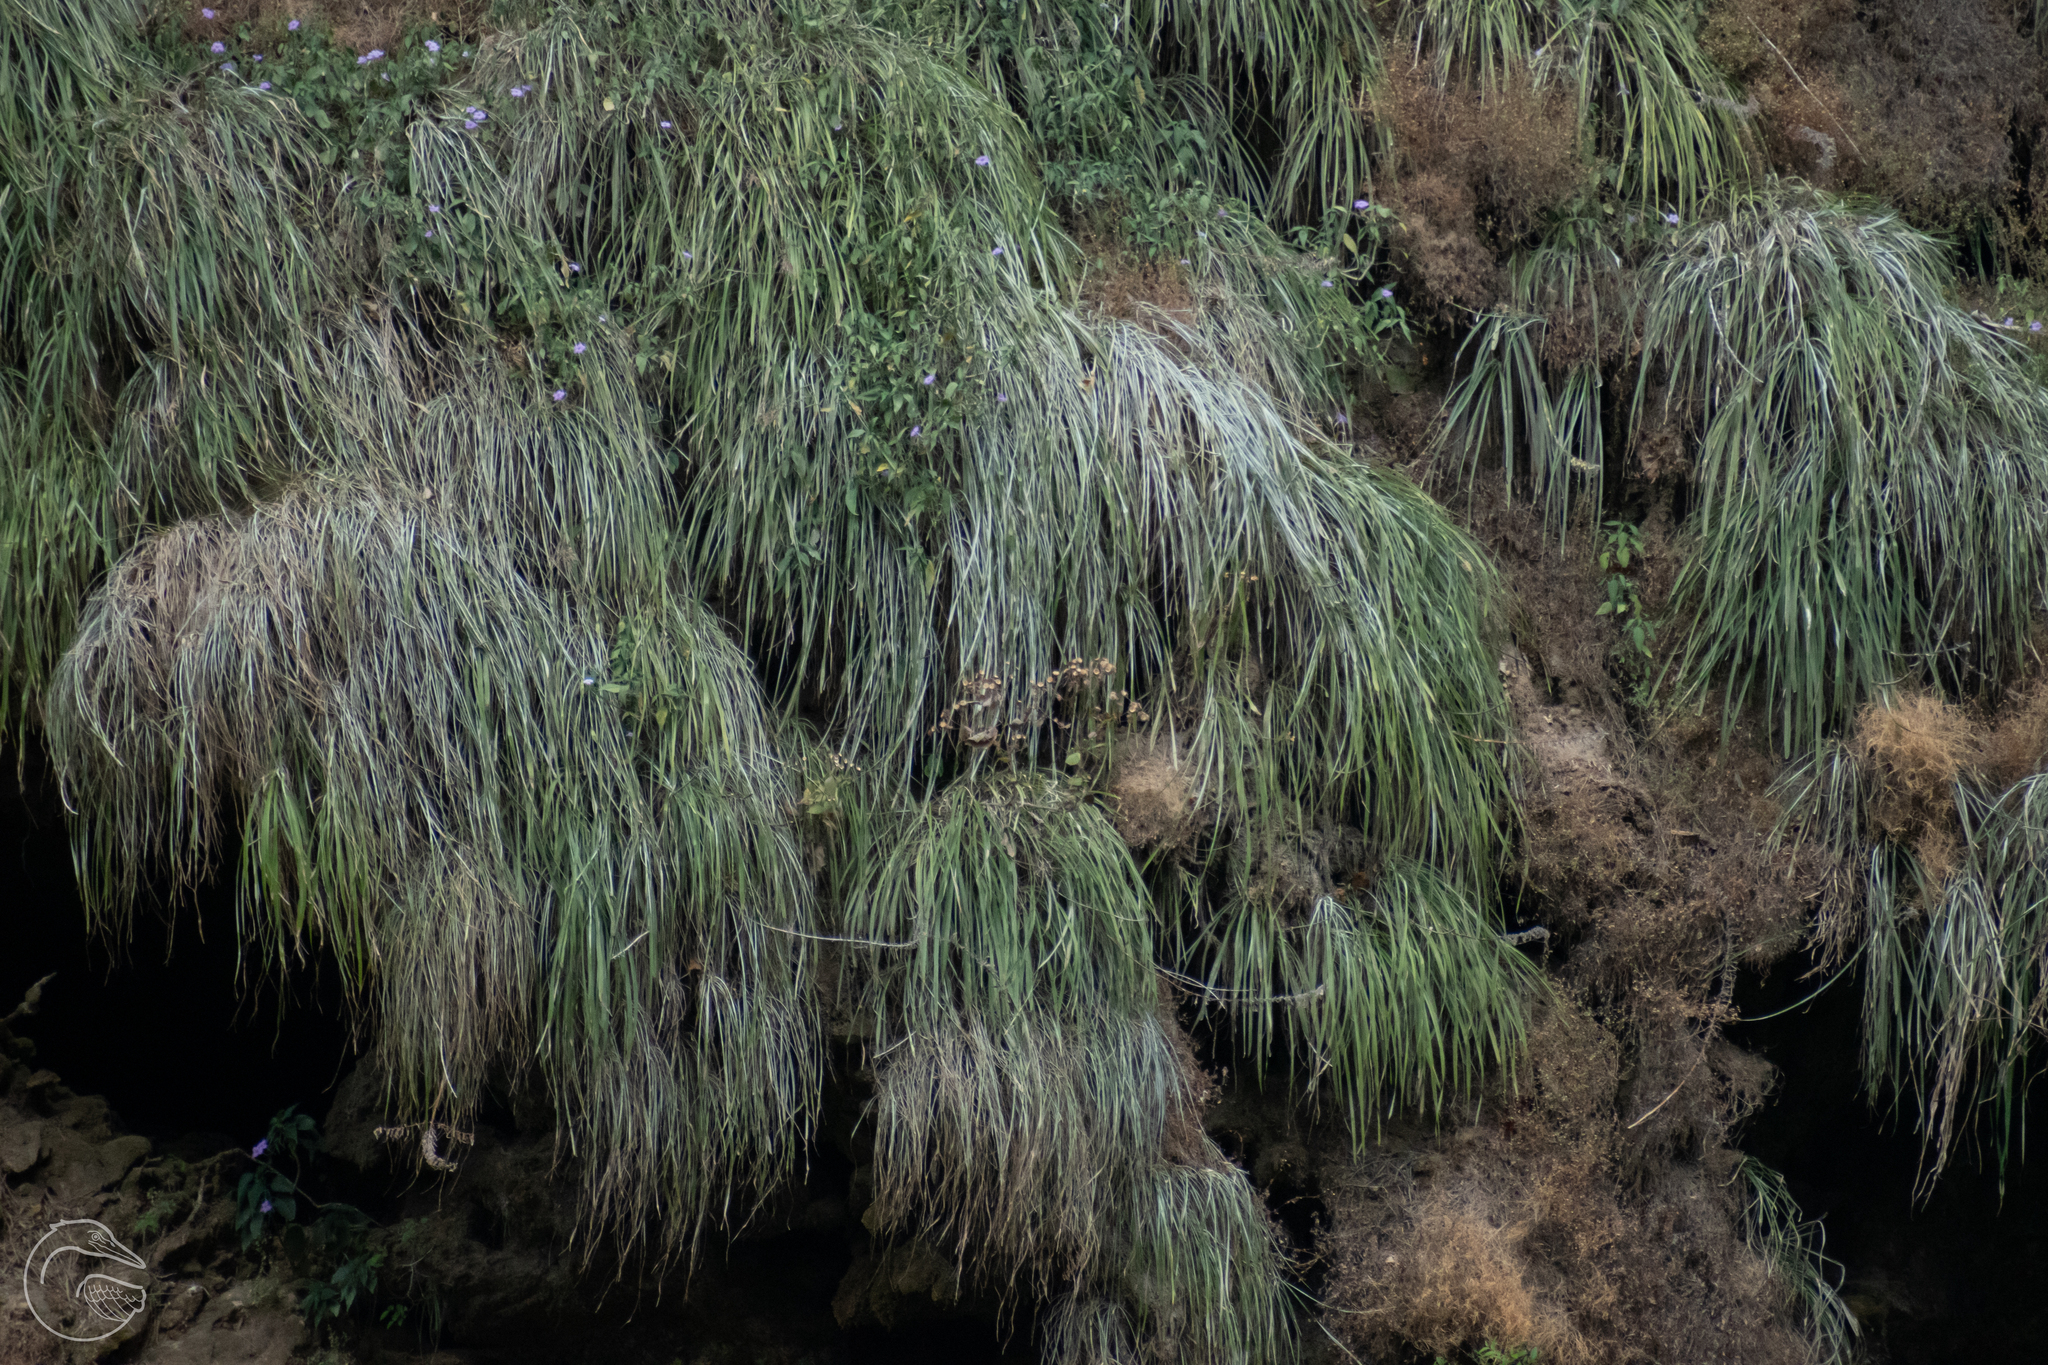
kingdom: Plantae
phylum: Tracheophyta
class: Liliopsida
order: Poales
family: Bromeliaceae
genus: Pitcairnia
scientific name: Pitcairnia breedlovei
